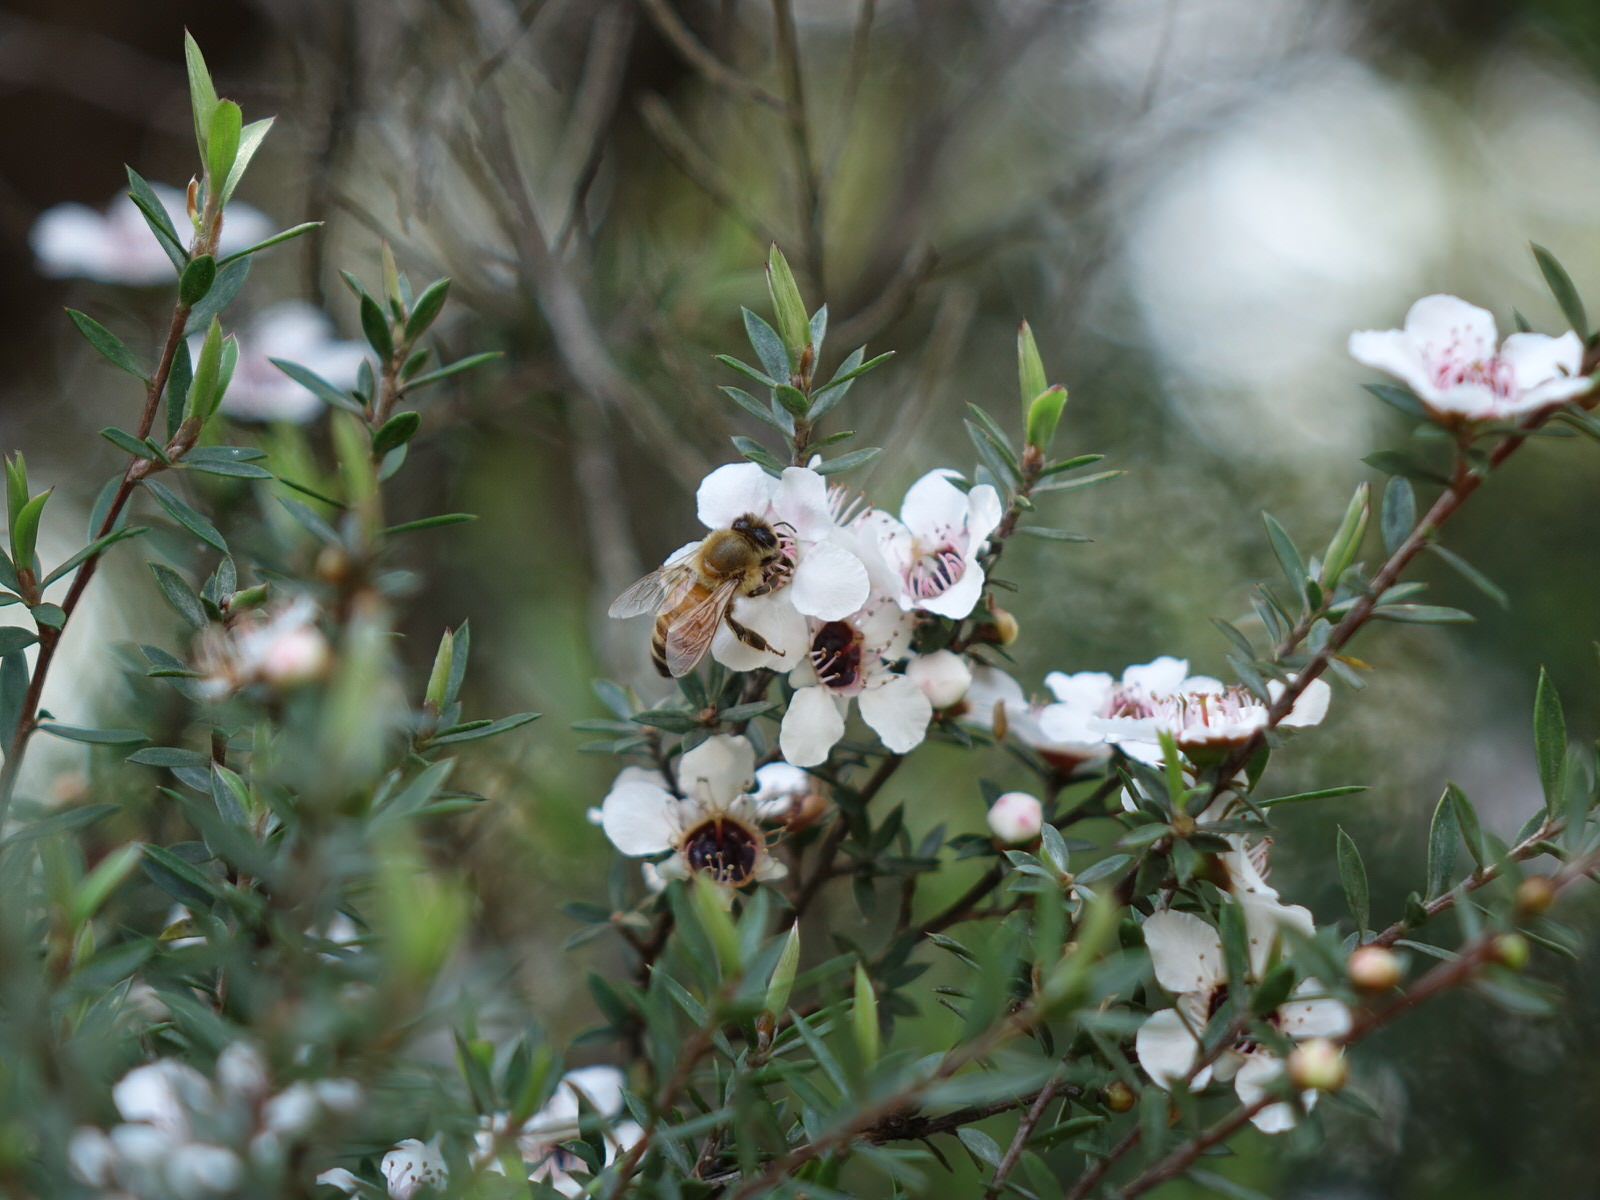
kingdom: Animalia
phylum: Arthropoda
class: Insecta
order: Hymenoptera
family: Apidae
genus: Apis
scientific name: Apis mellifera
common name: Honey bee
